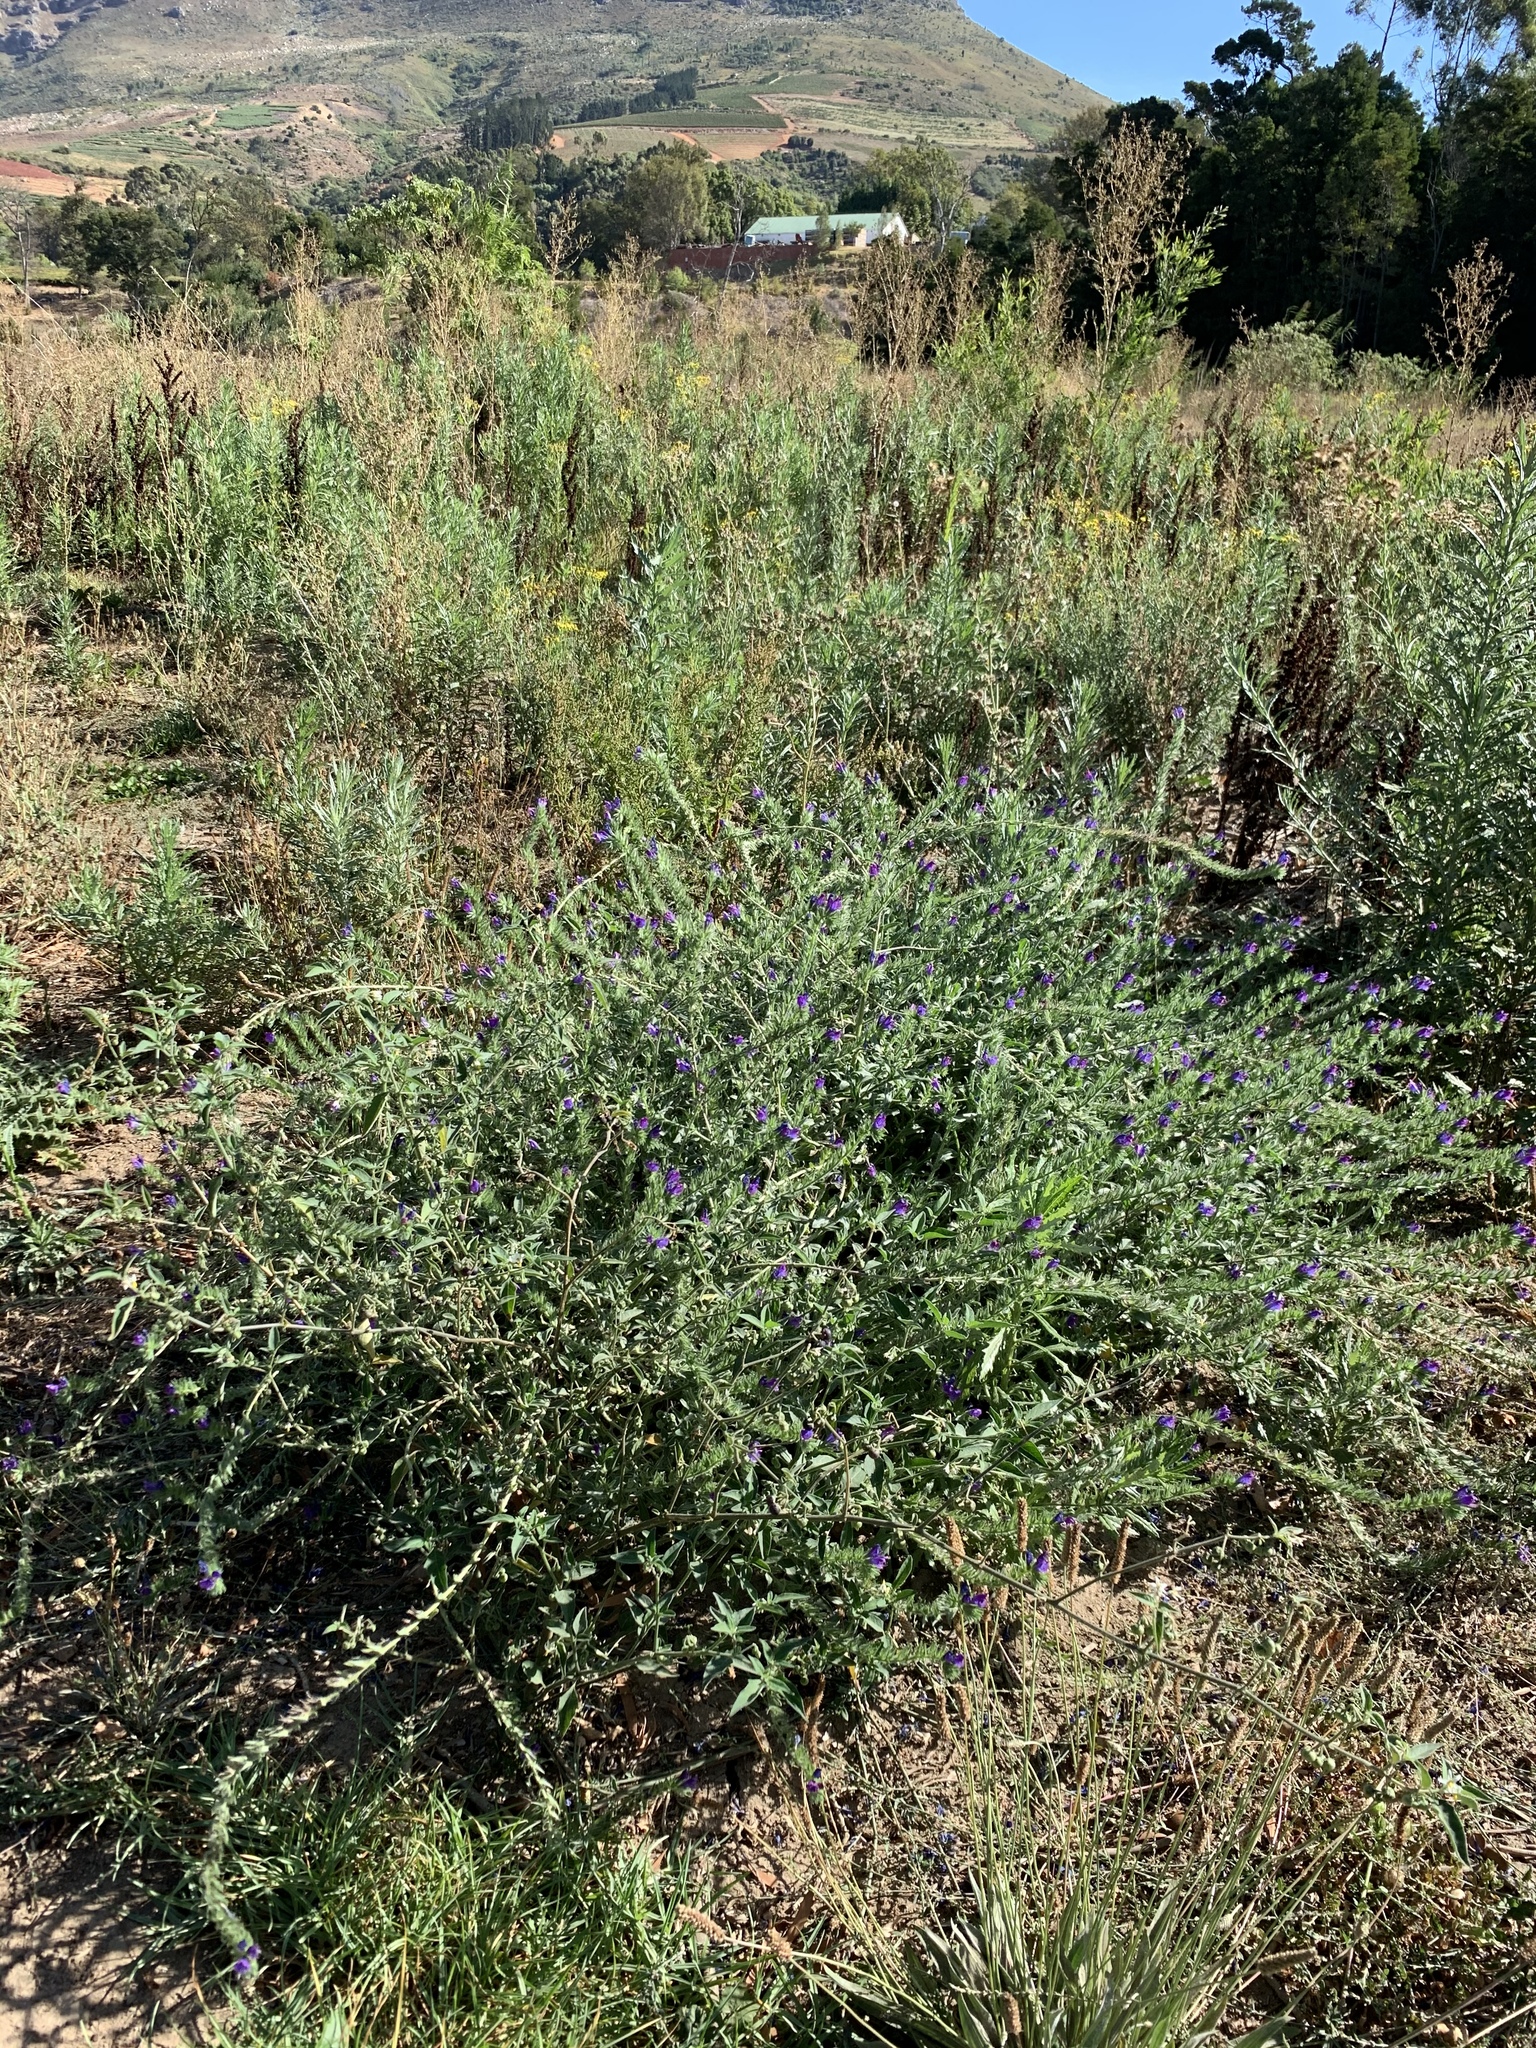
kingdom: Plantae
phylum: Tracheophyta
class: Magnoliopsida
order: Boraginales
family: Boraginaceae
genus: Echium
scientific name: Echium plantagineum
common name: Purple viper's-bugloss
